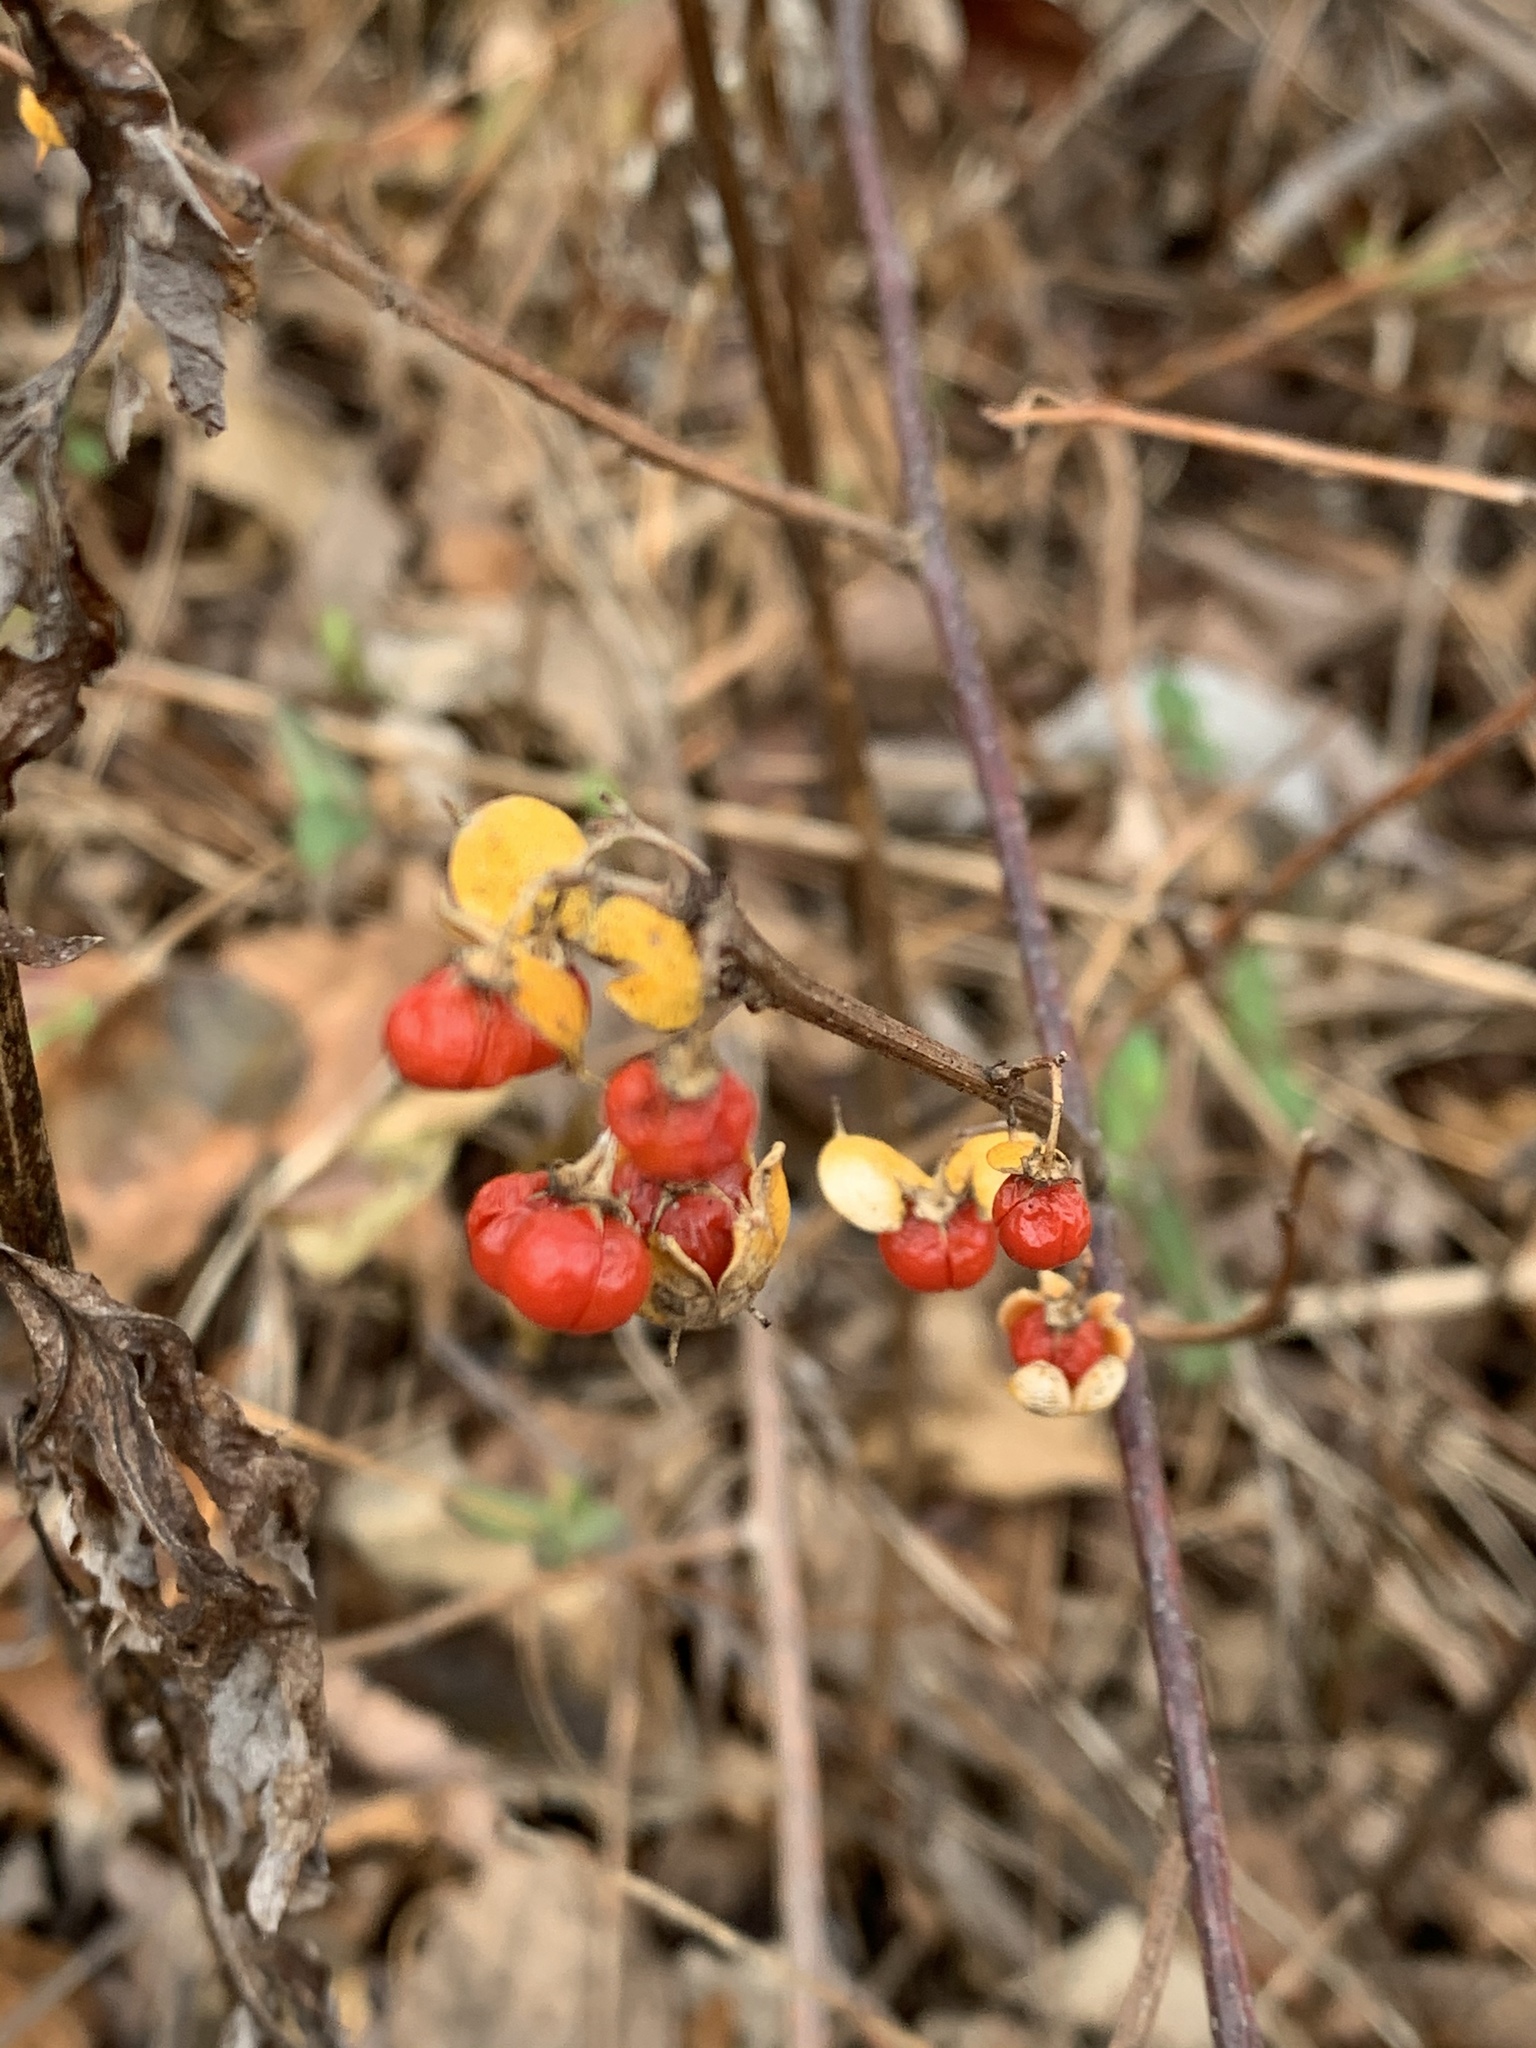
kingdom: Plantae
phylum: Tracheophyta
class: Magnoliopsida
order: Celastrales
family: Celastraceae
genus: Celastrus
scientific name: Celastrus orbiculatus
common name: Oriental bittersweet
